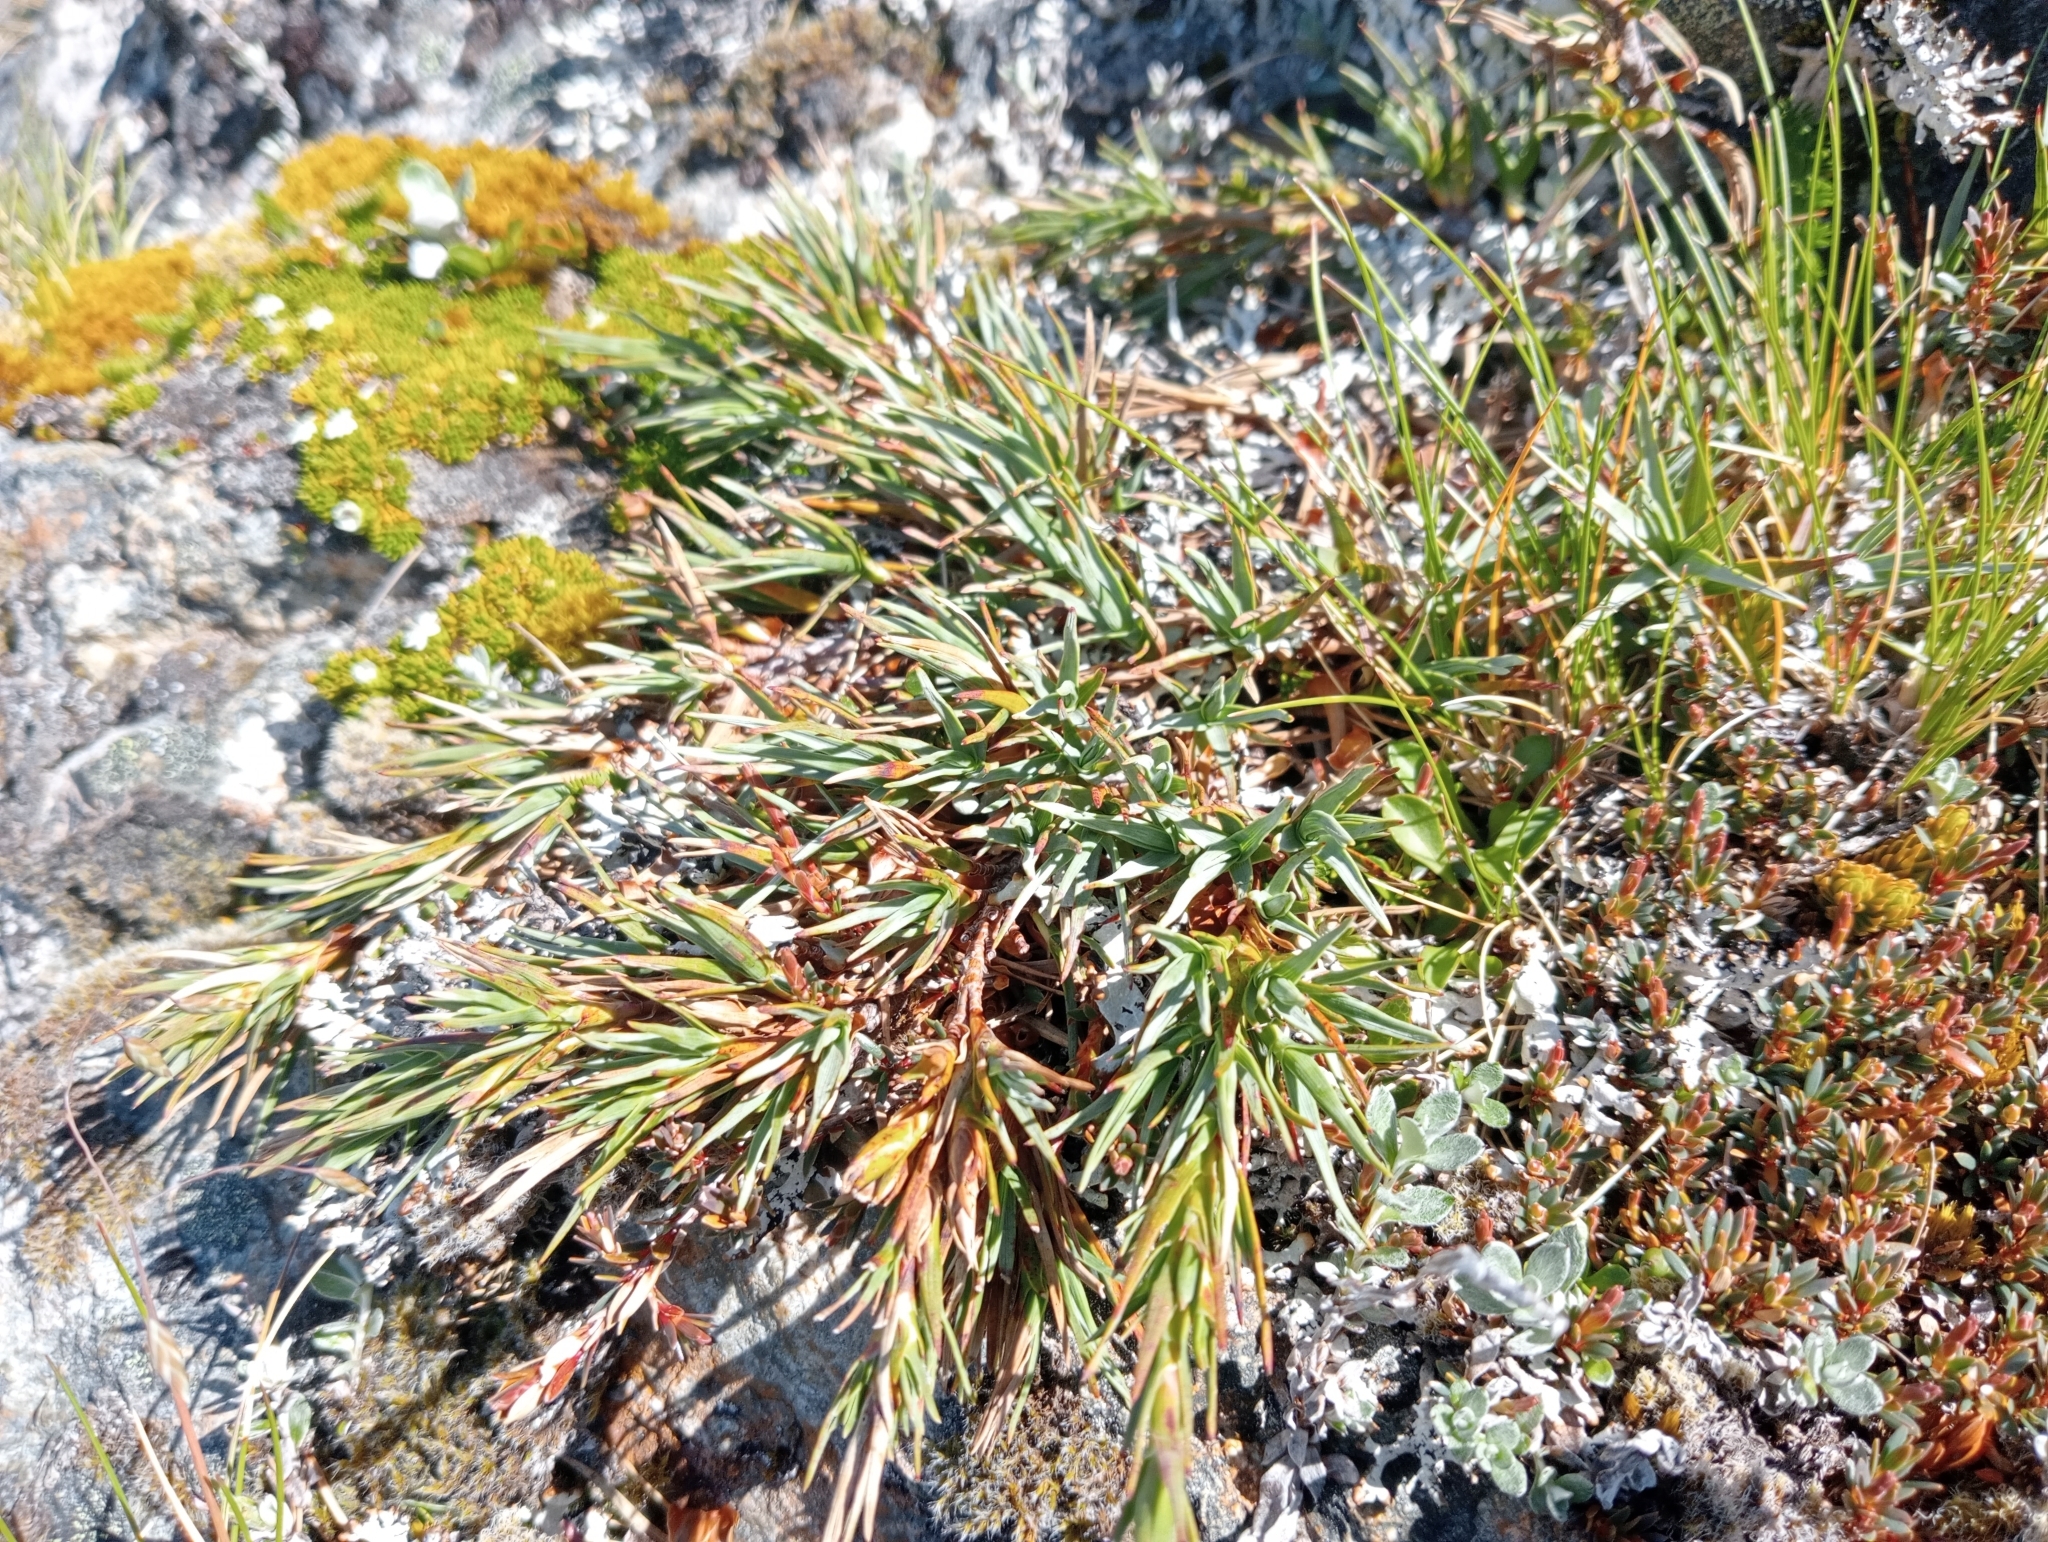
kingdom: Plantae
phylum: Tracheophyta
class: Magnoliopsida
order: Ericales
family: Ericaceae
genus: Dracophyllum
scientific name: Dracophyllum kirkii
